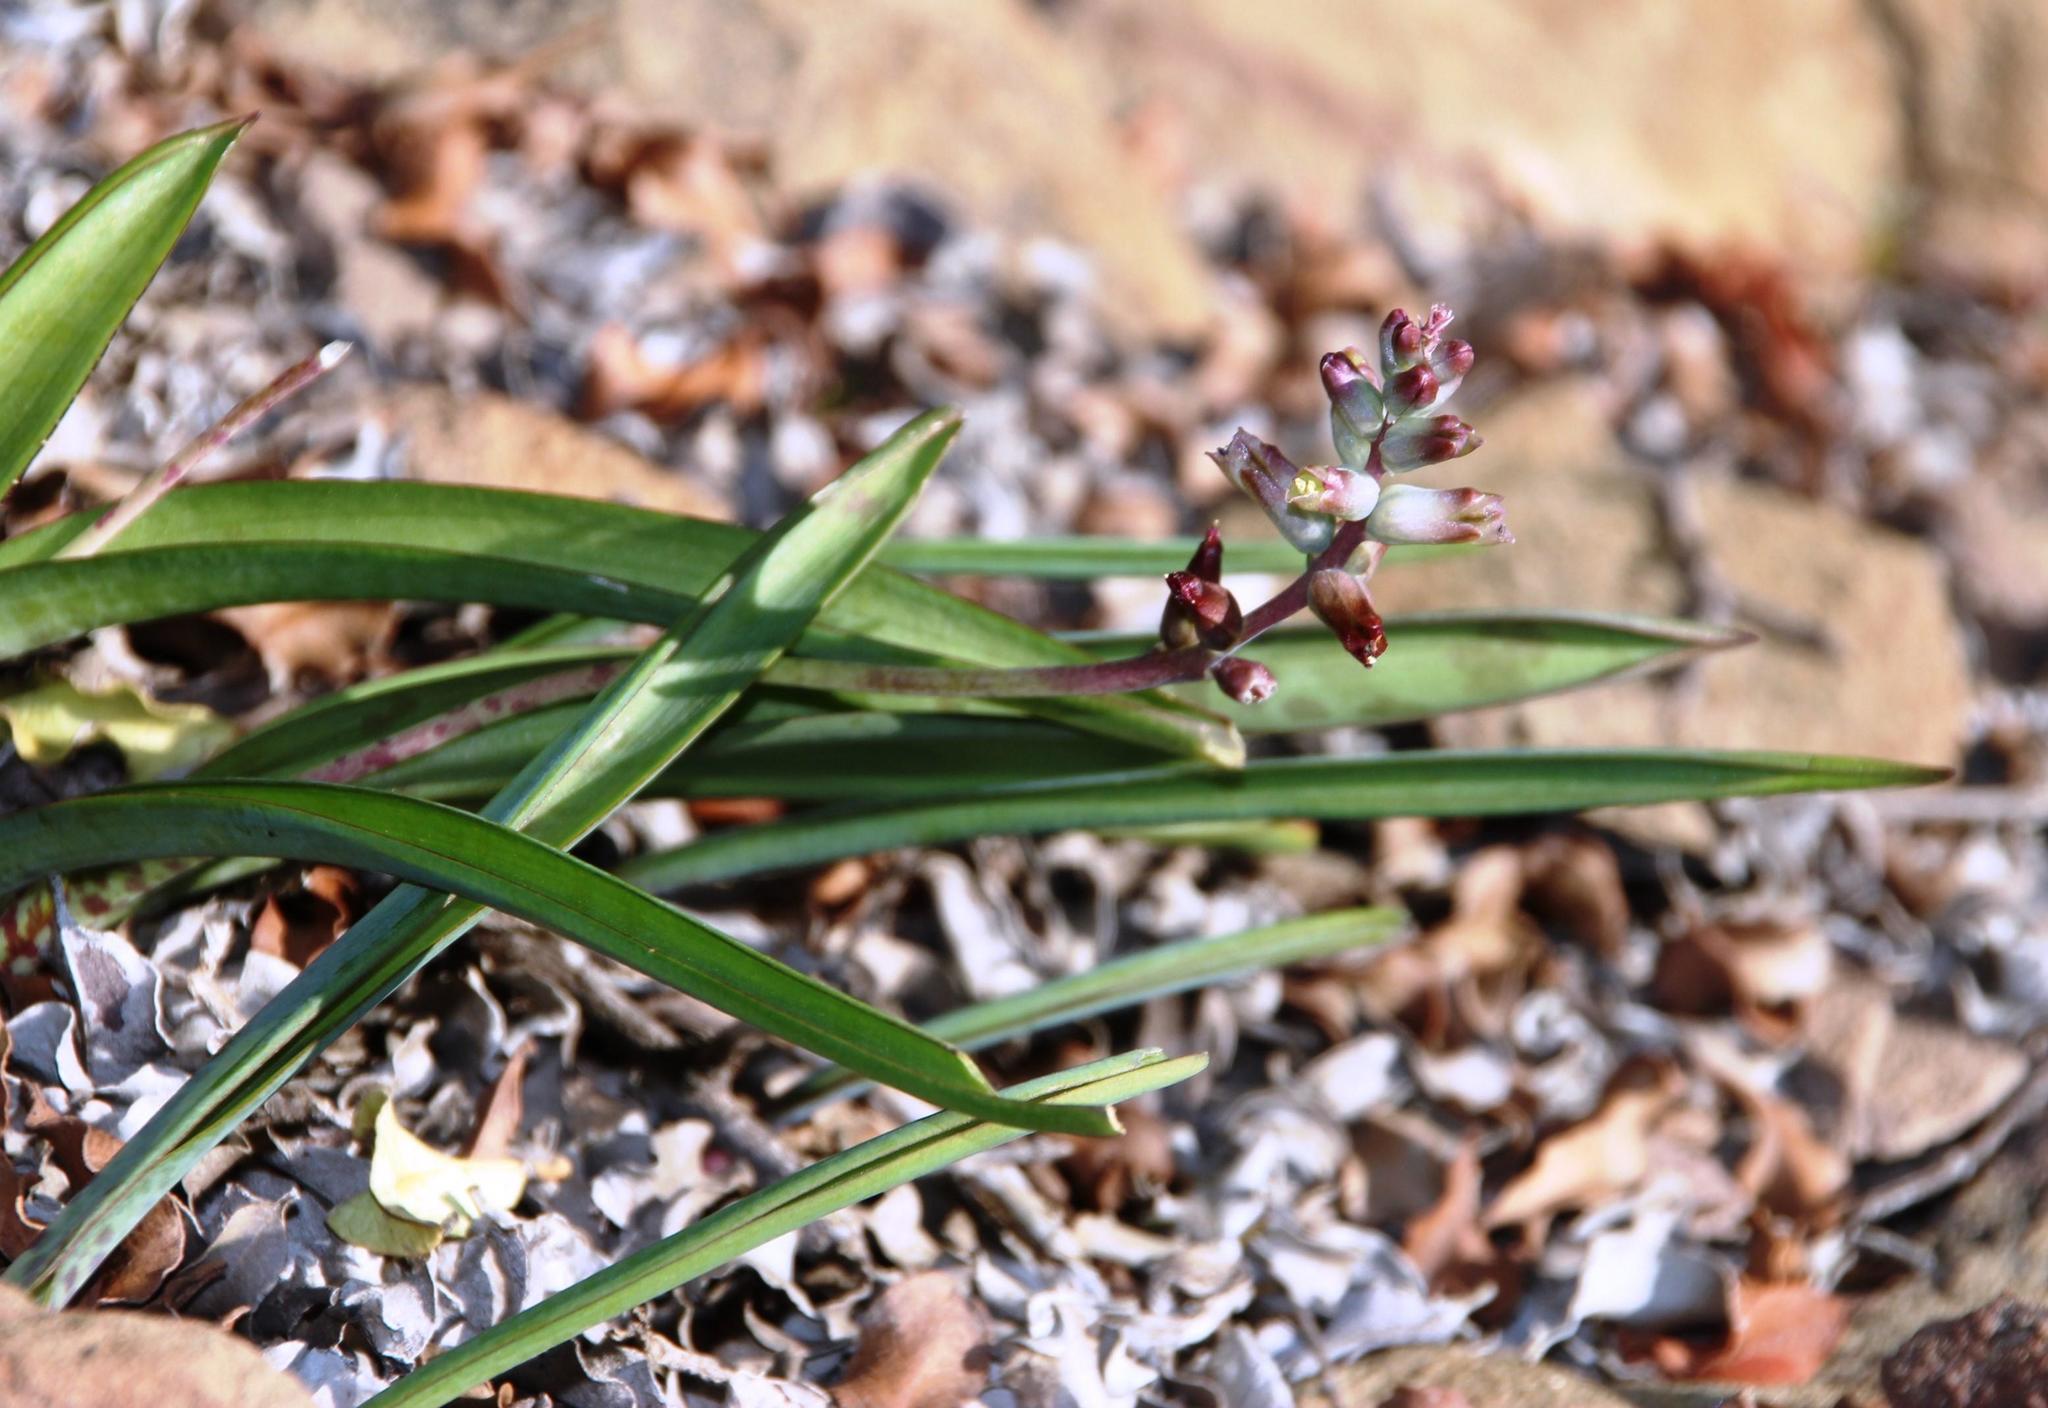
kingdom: Plantae
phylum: Tracheophyta
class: Liliopsida
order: Asparagales
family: Asparagaceae
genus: Lachenalia
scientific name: Lachenalia perryae
